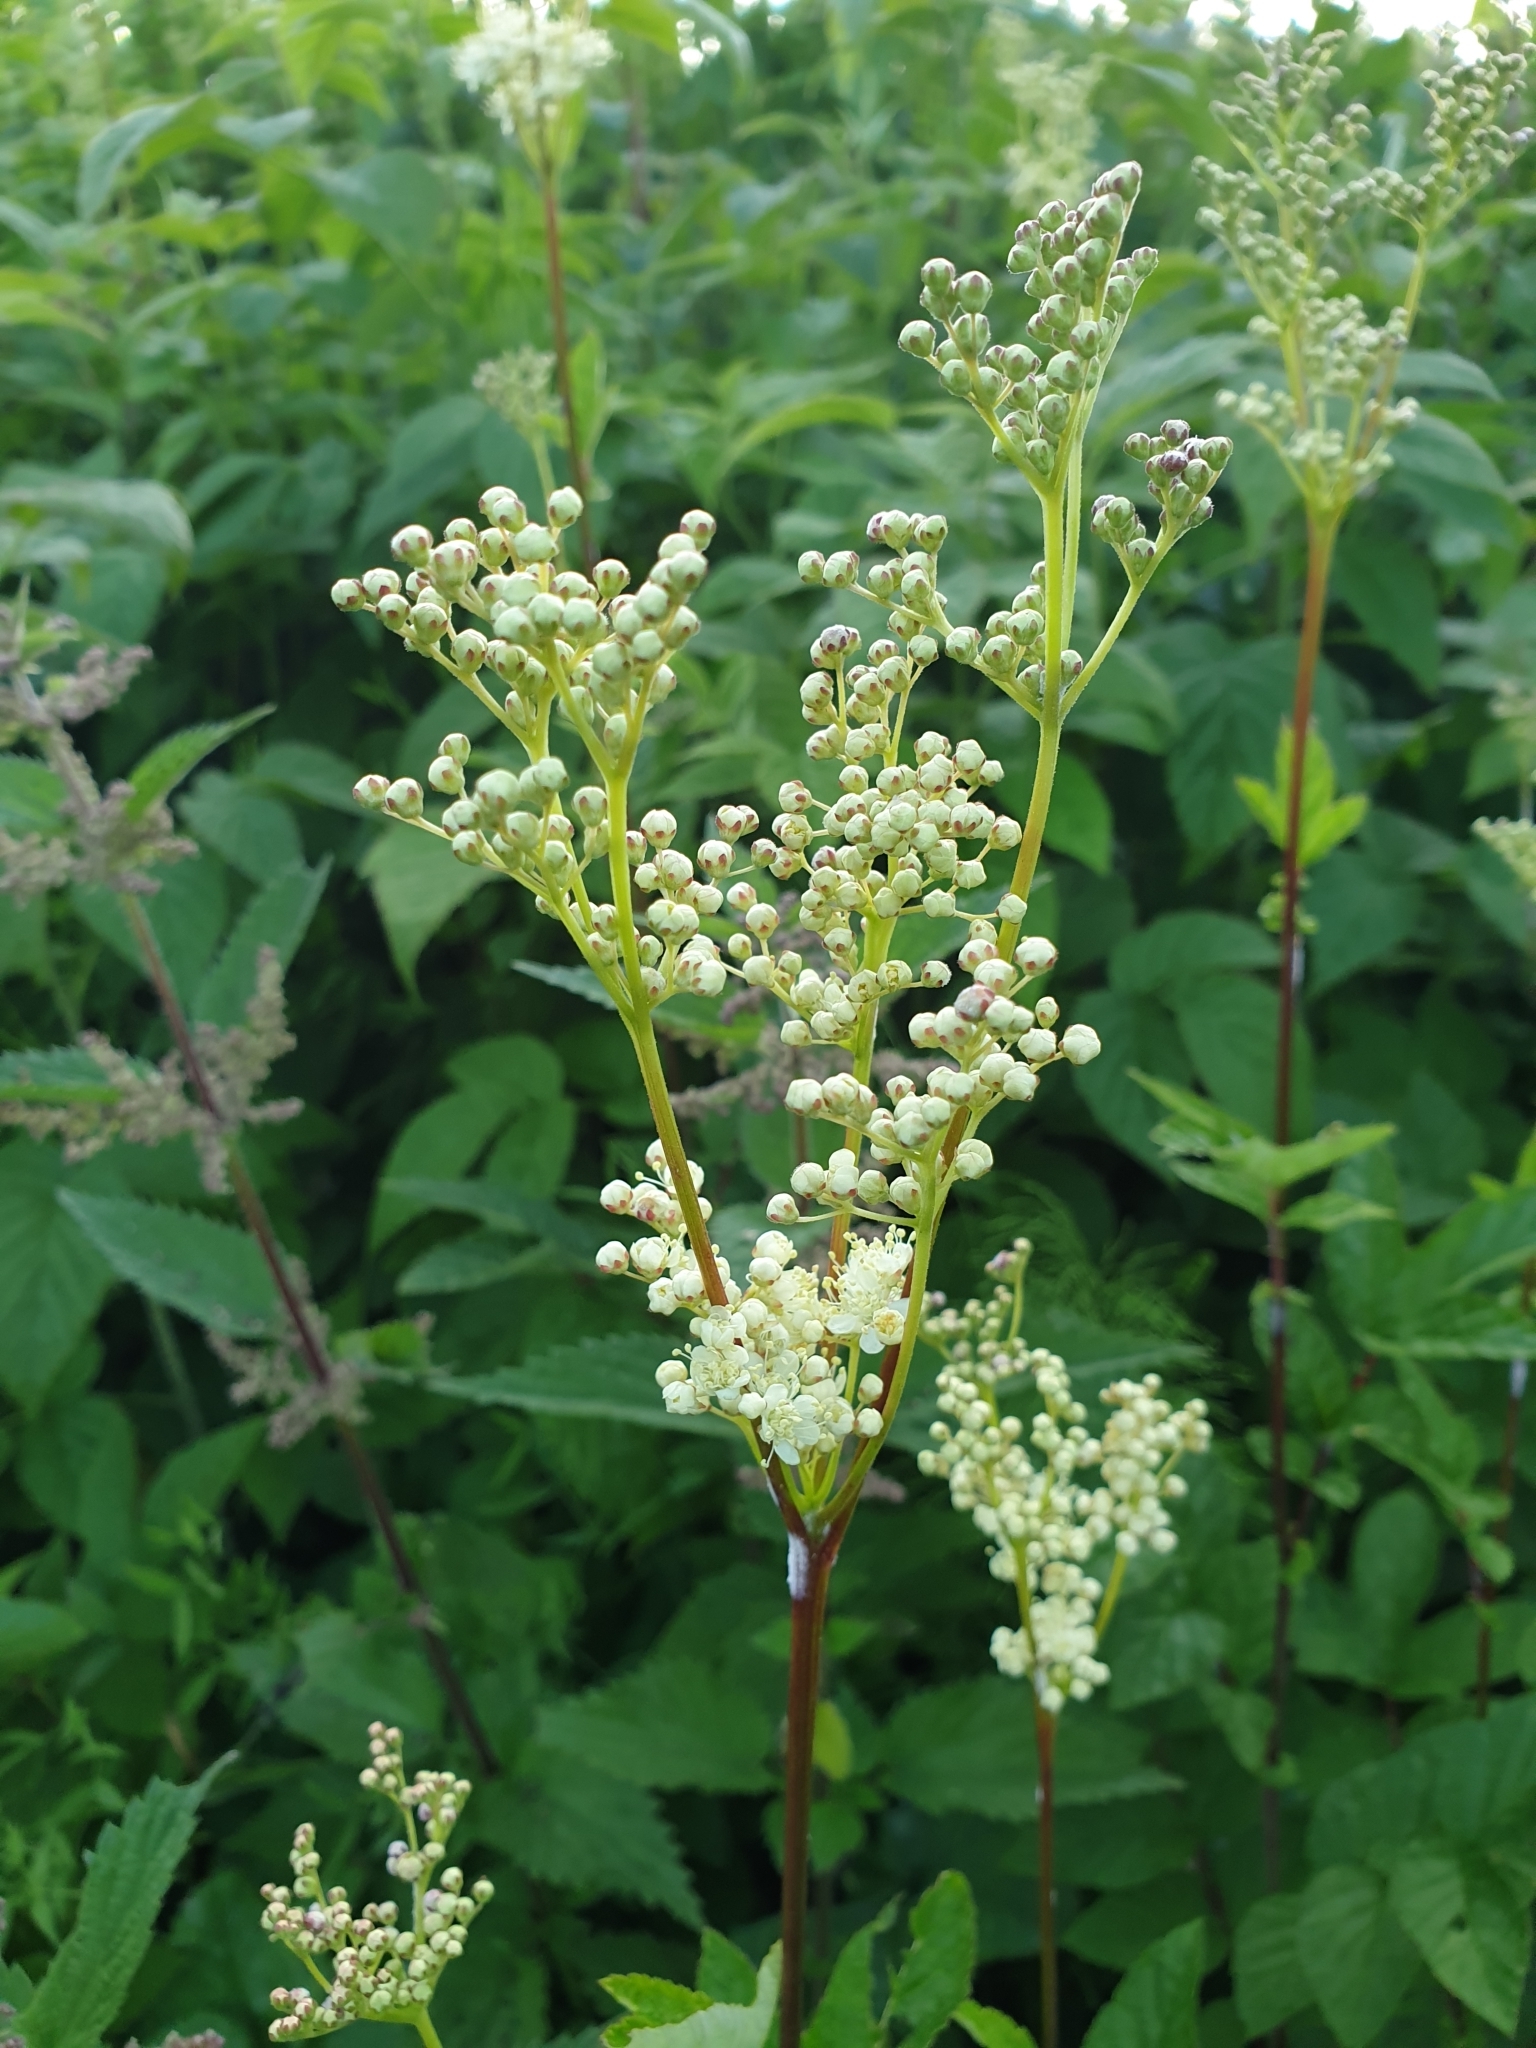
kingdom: Plantae
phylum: Tracheophyta
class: Magnoliopsida
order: Rosales
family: Rosaceae
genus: Filipendula
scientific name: Filipendula ulmaria
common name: Meadowsweet
